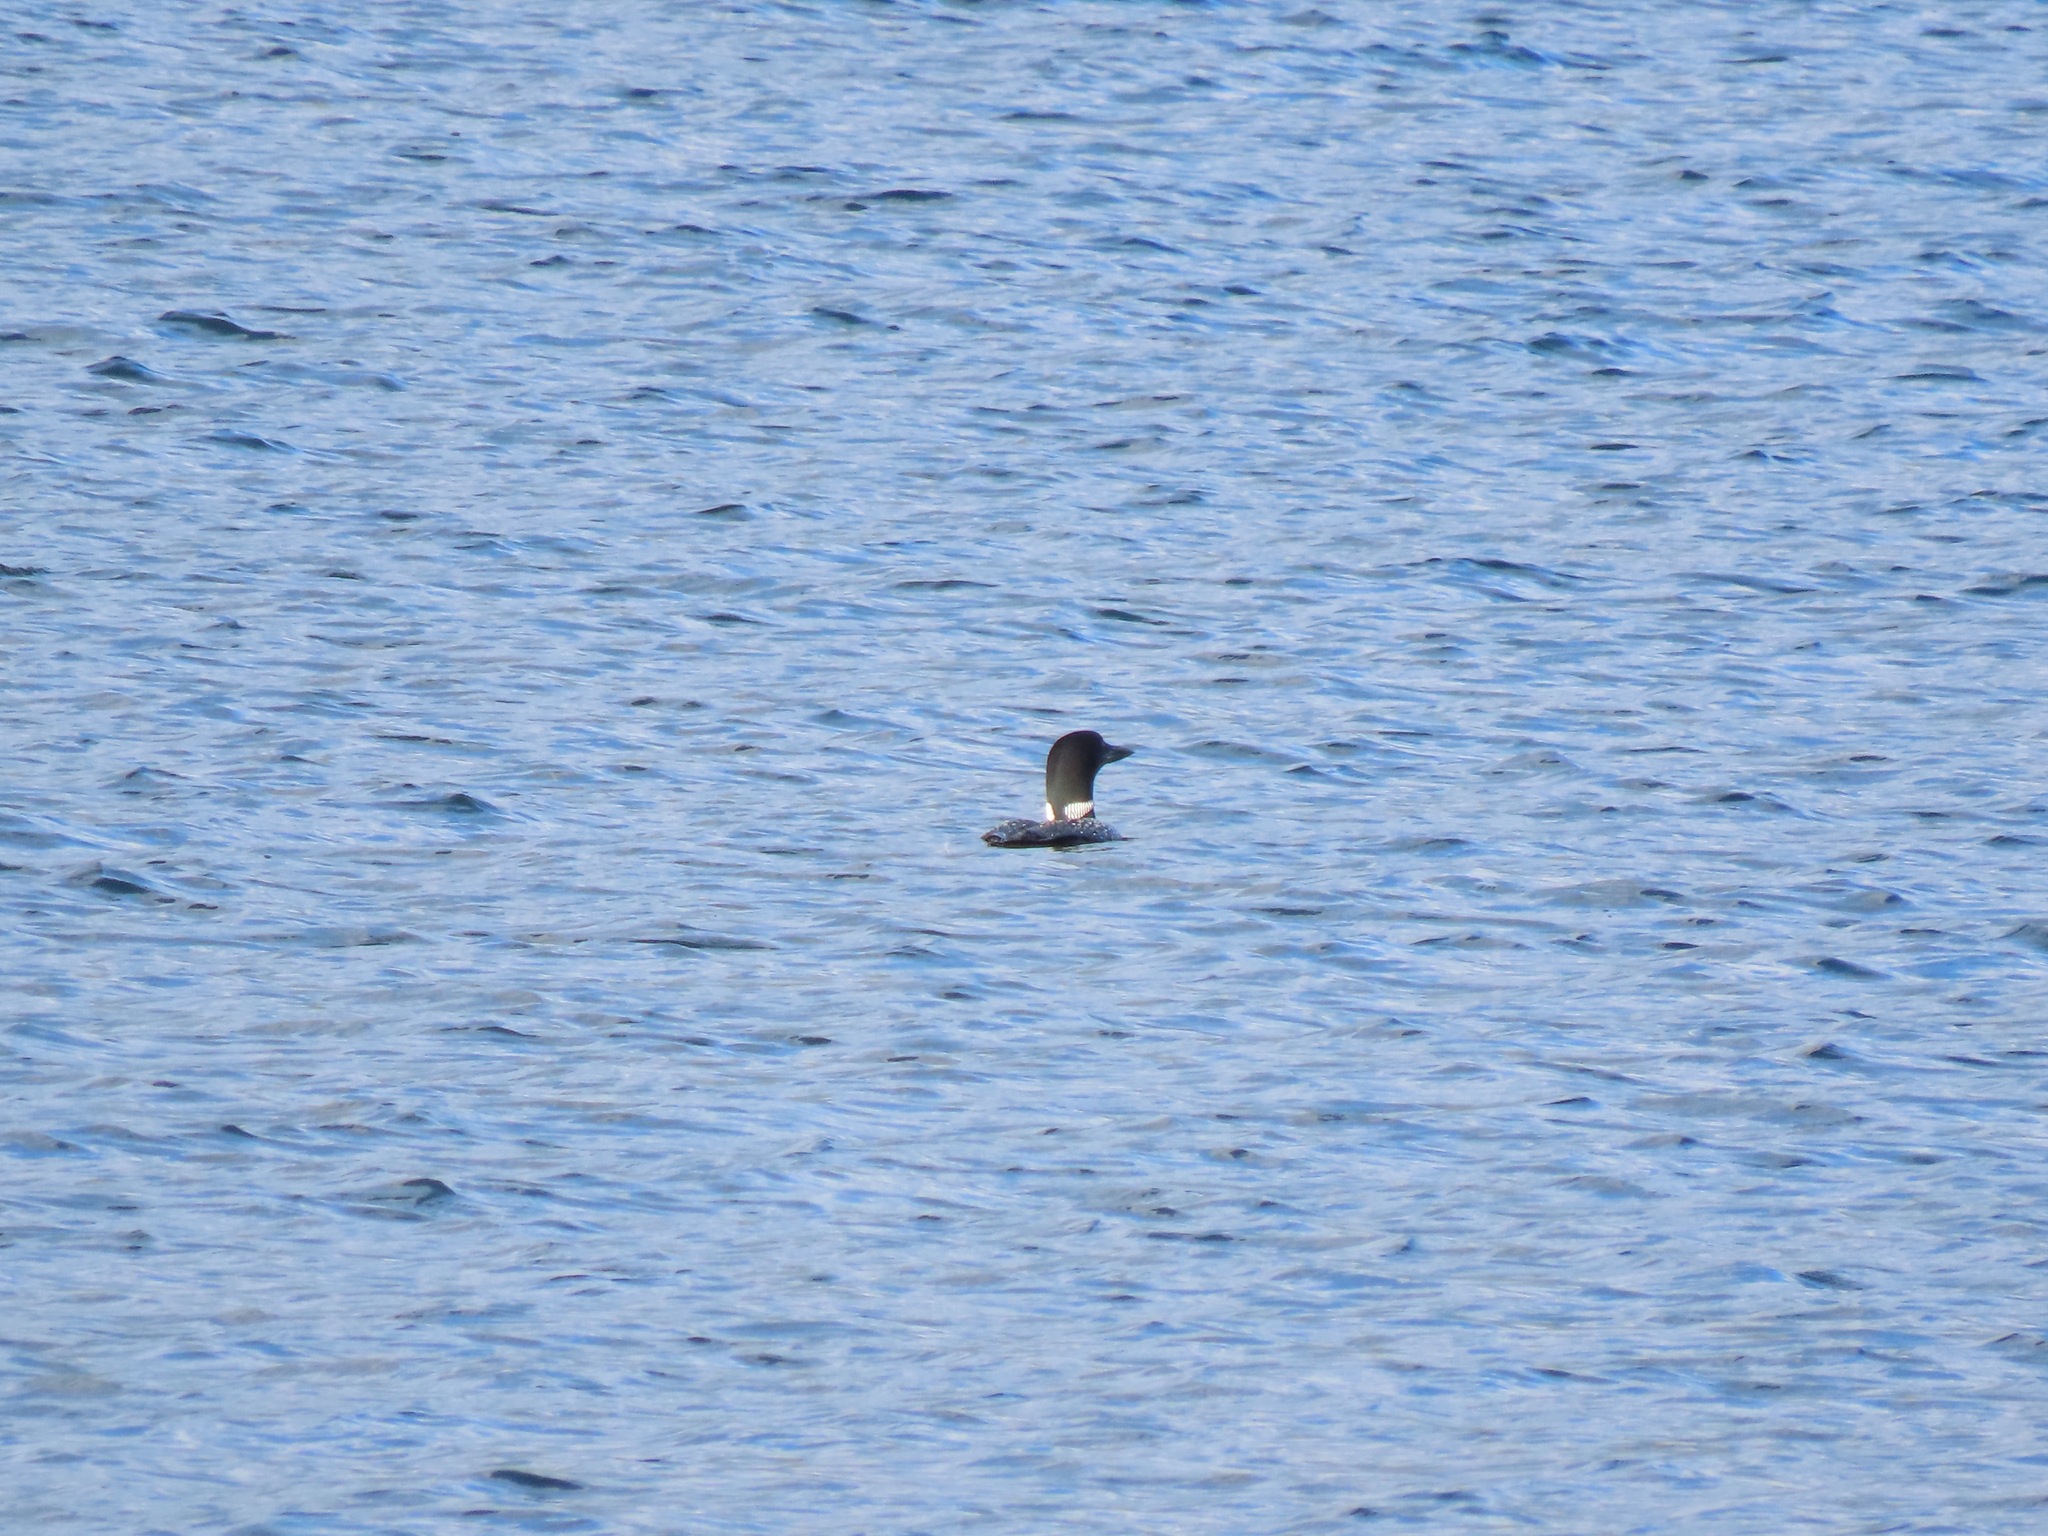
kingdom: Animalia
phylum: Chordata
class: Aves
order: Gaviiformes
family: Gaviidae
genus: Gavia
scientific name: Gavia immer
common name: Common loon
